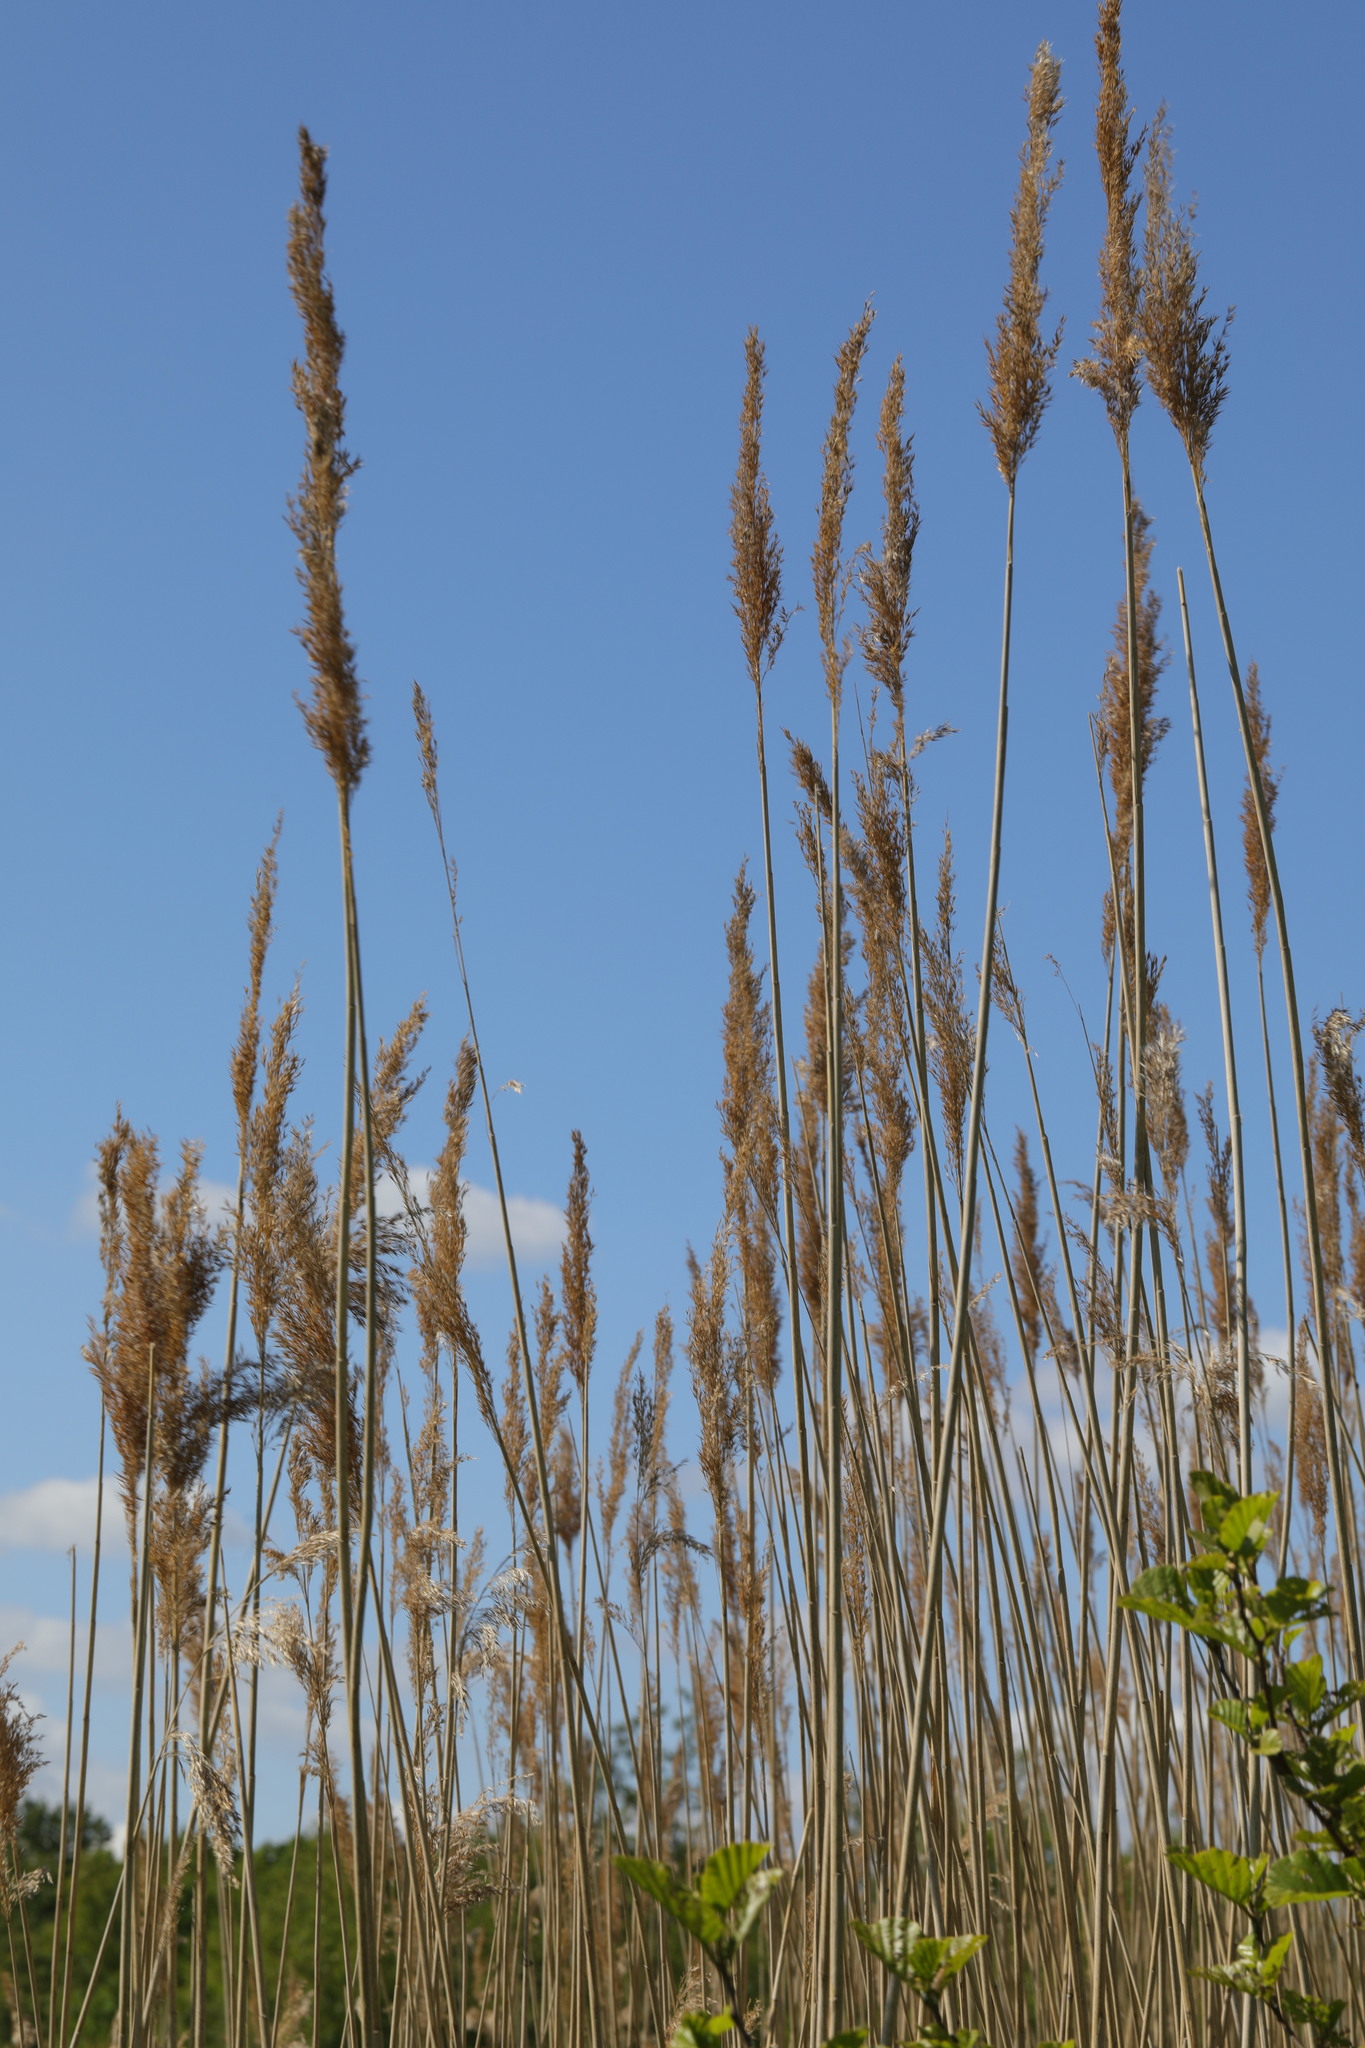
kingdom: Plantae
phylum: Tracheophyta
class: Liliopsida
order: Poales
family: Poaceae
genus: Phragmites
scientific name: Phragmites australis
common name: Common reed
